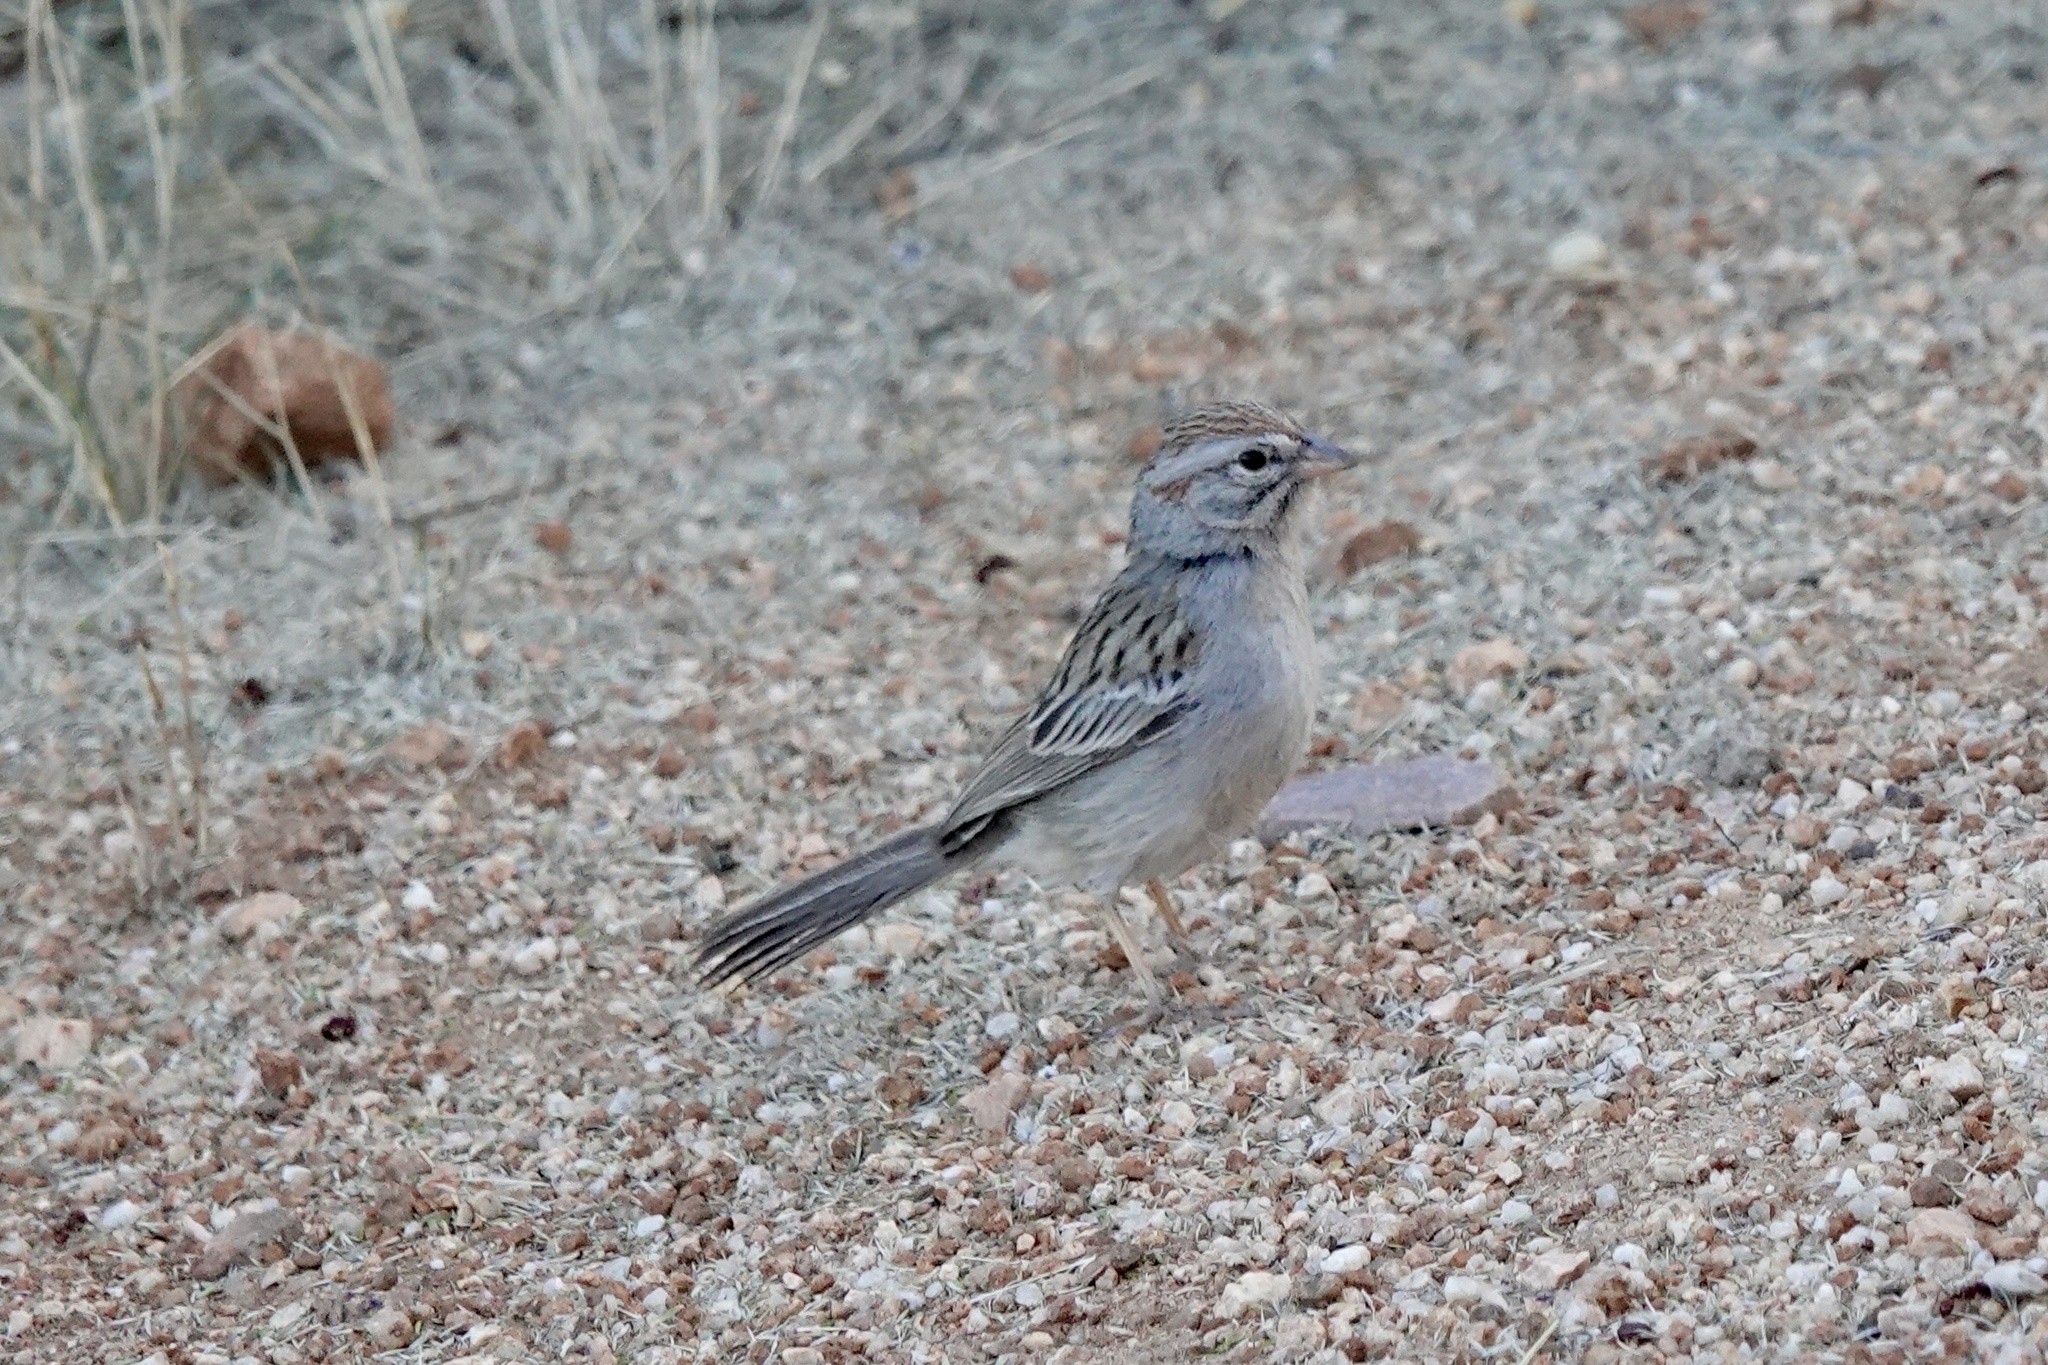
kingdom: Animalia
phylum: Chordata
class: Aves
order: Passeriformes
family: Passerellidae
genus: Peucaea
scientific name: Peucaea carpalis
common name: Rufous-winged sparrow
